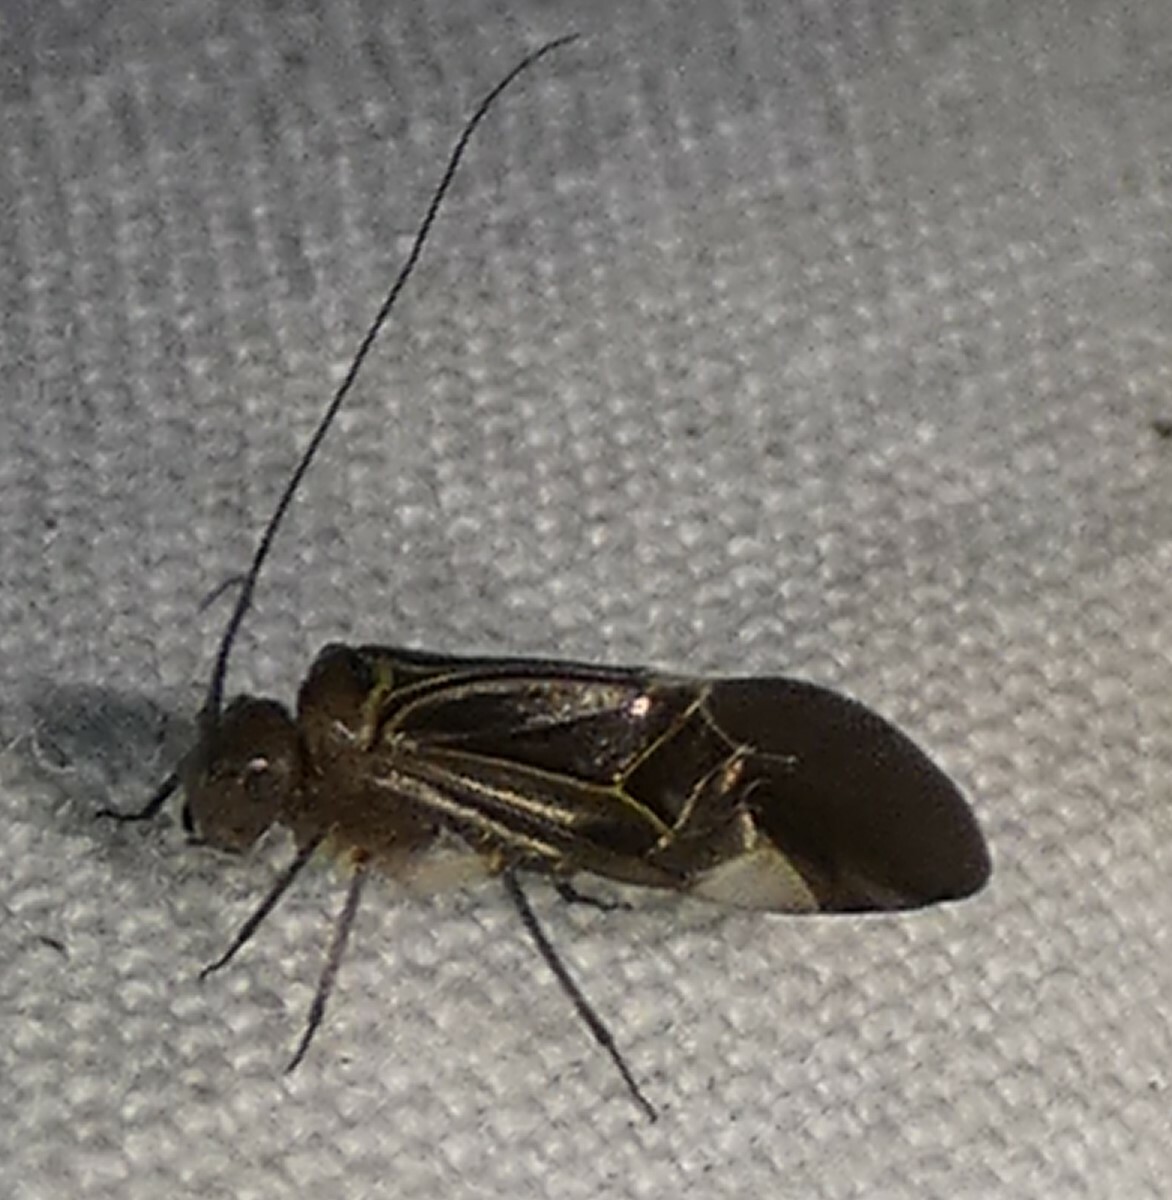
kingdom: Animalia
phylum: Arthropoda
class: Insecta
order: Psocodea
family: Psocidae
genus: Cerastipsocus
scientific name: Cerastipsocus venosus
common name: Tree cattle
